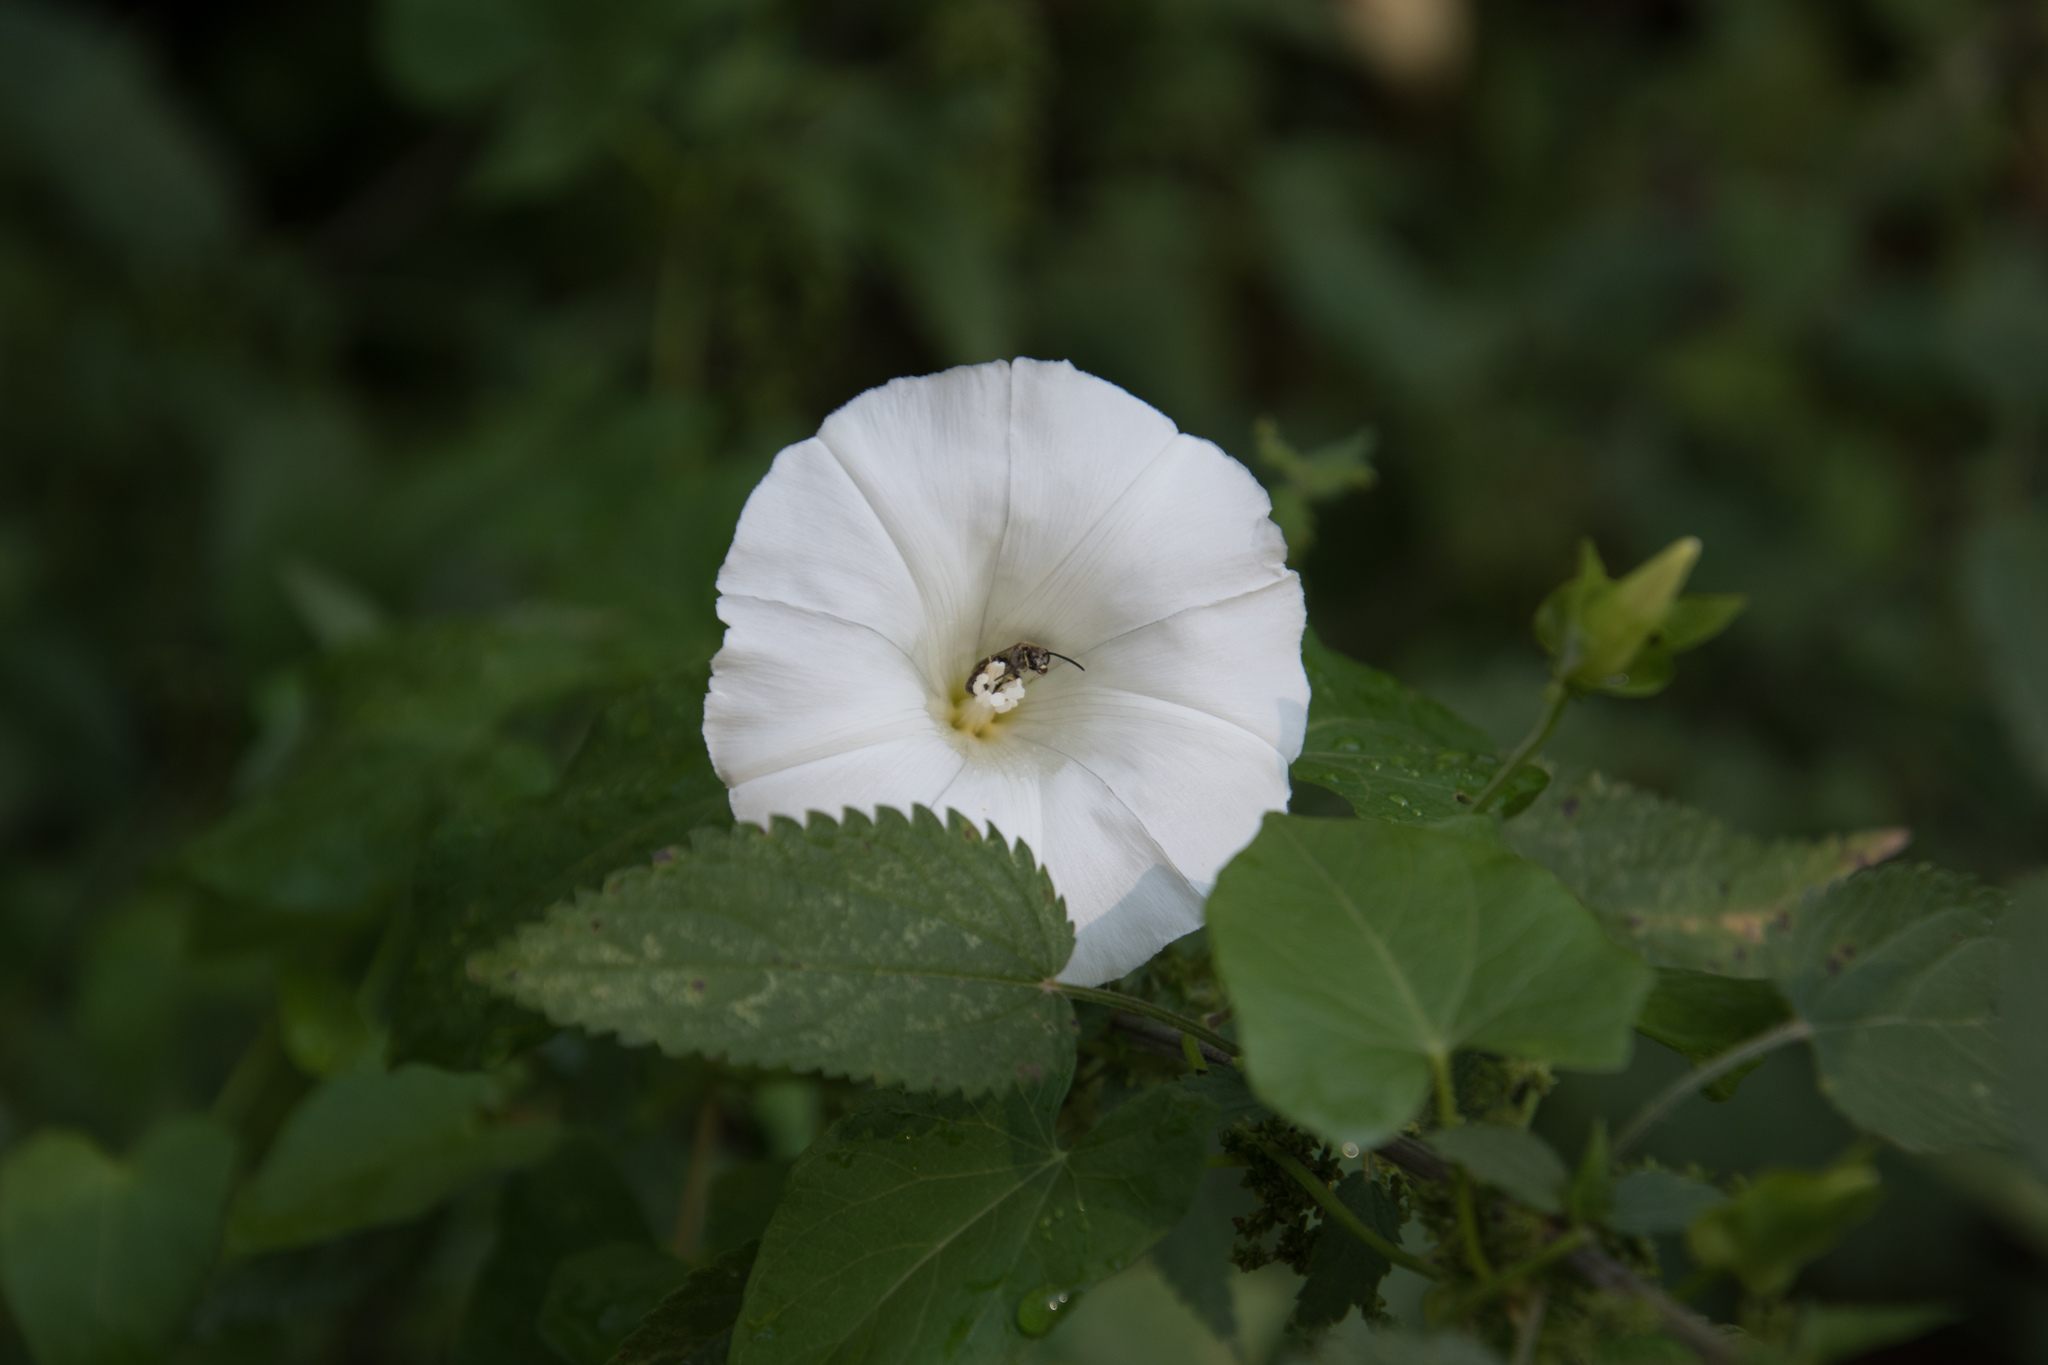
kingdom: Plantae
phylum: Tracheophyta
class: Magnoliopsida
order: Solanales
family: Convolvulaceae
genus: Calystegia
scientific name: Calystegia sepium
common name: Hedge bindweed
